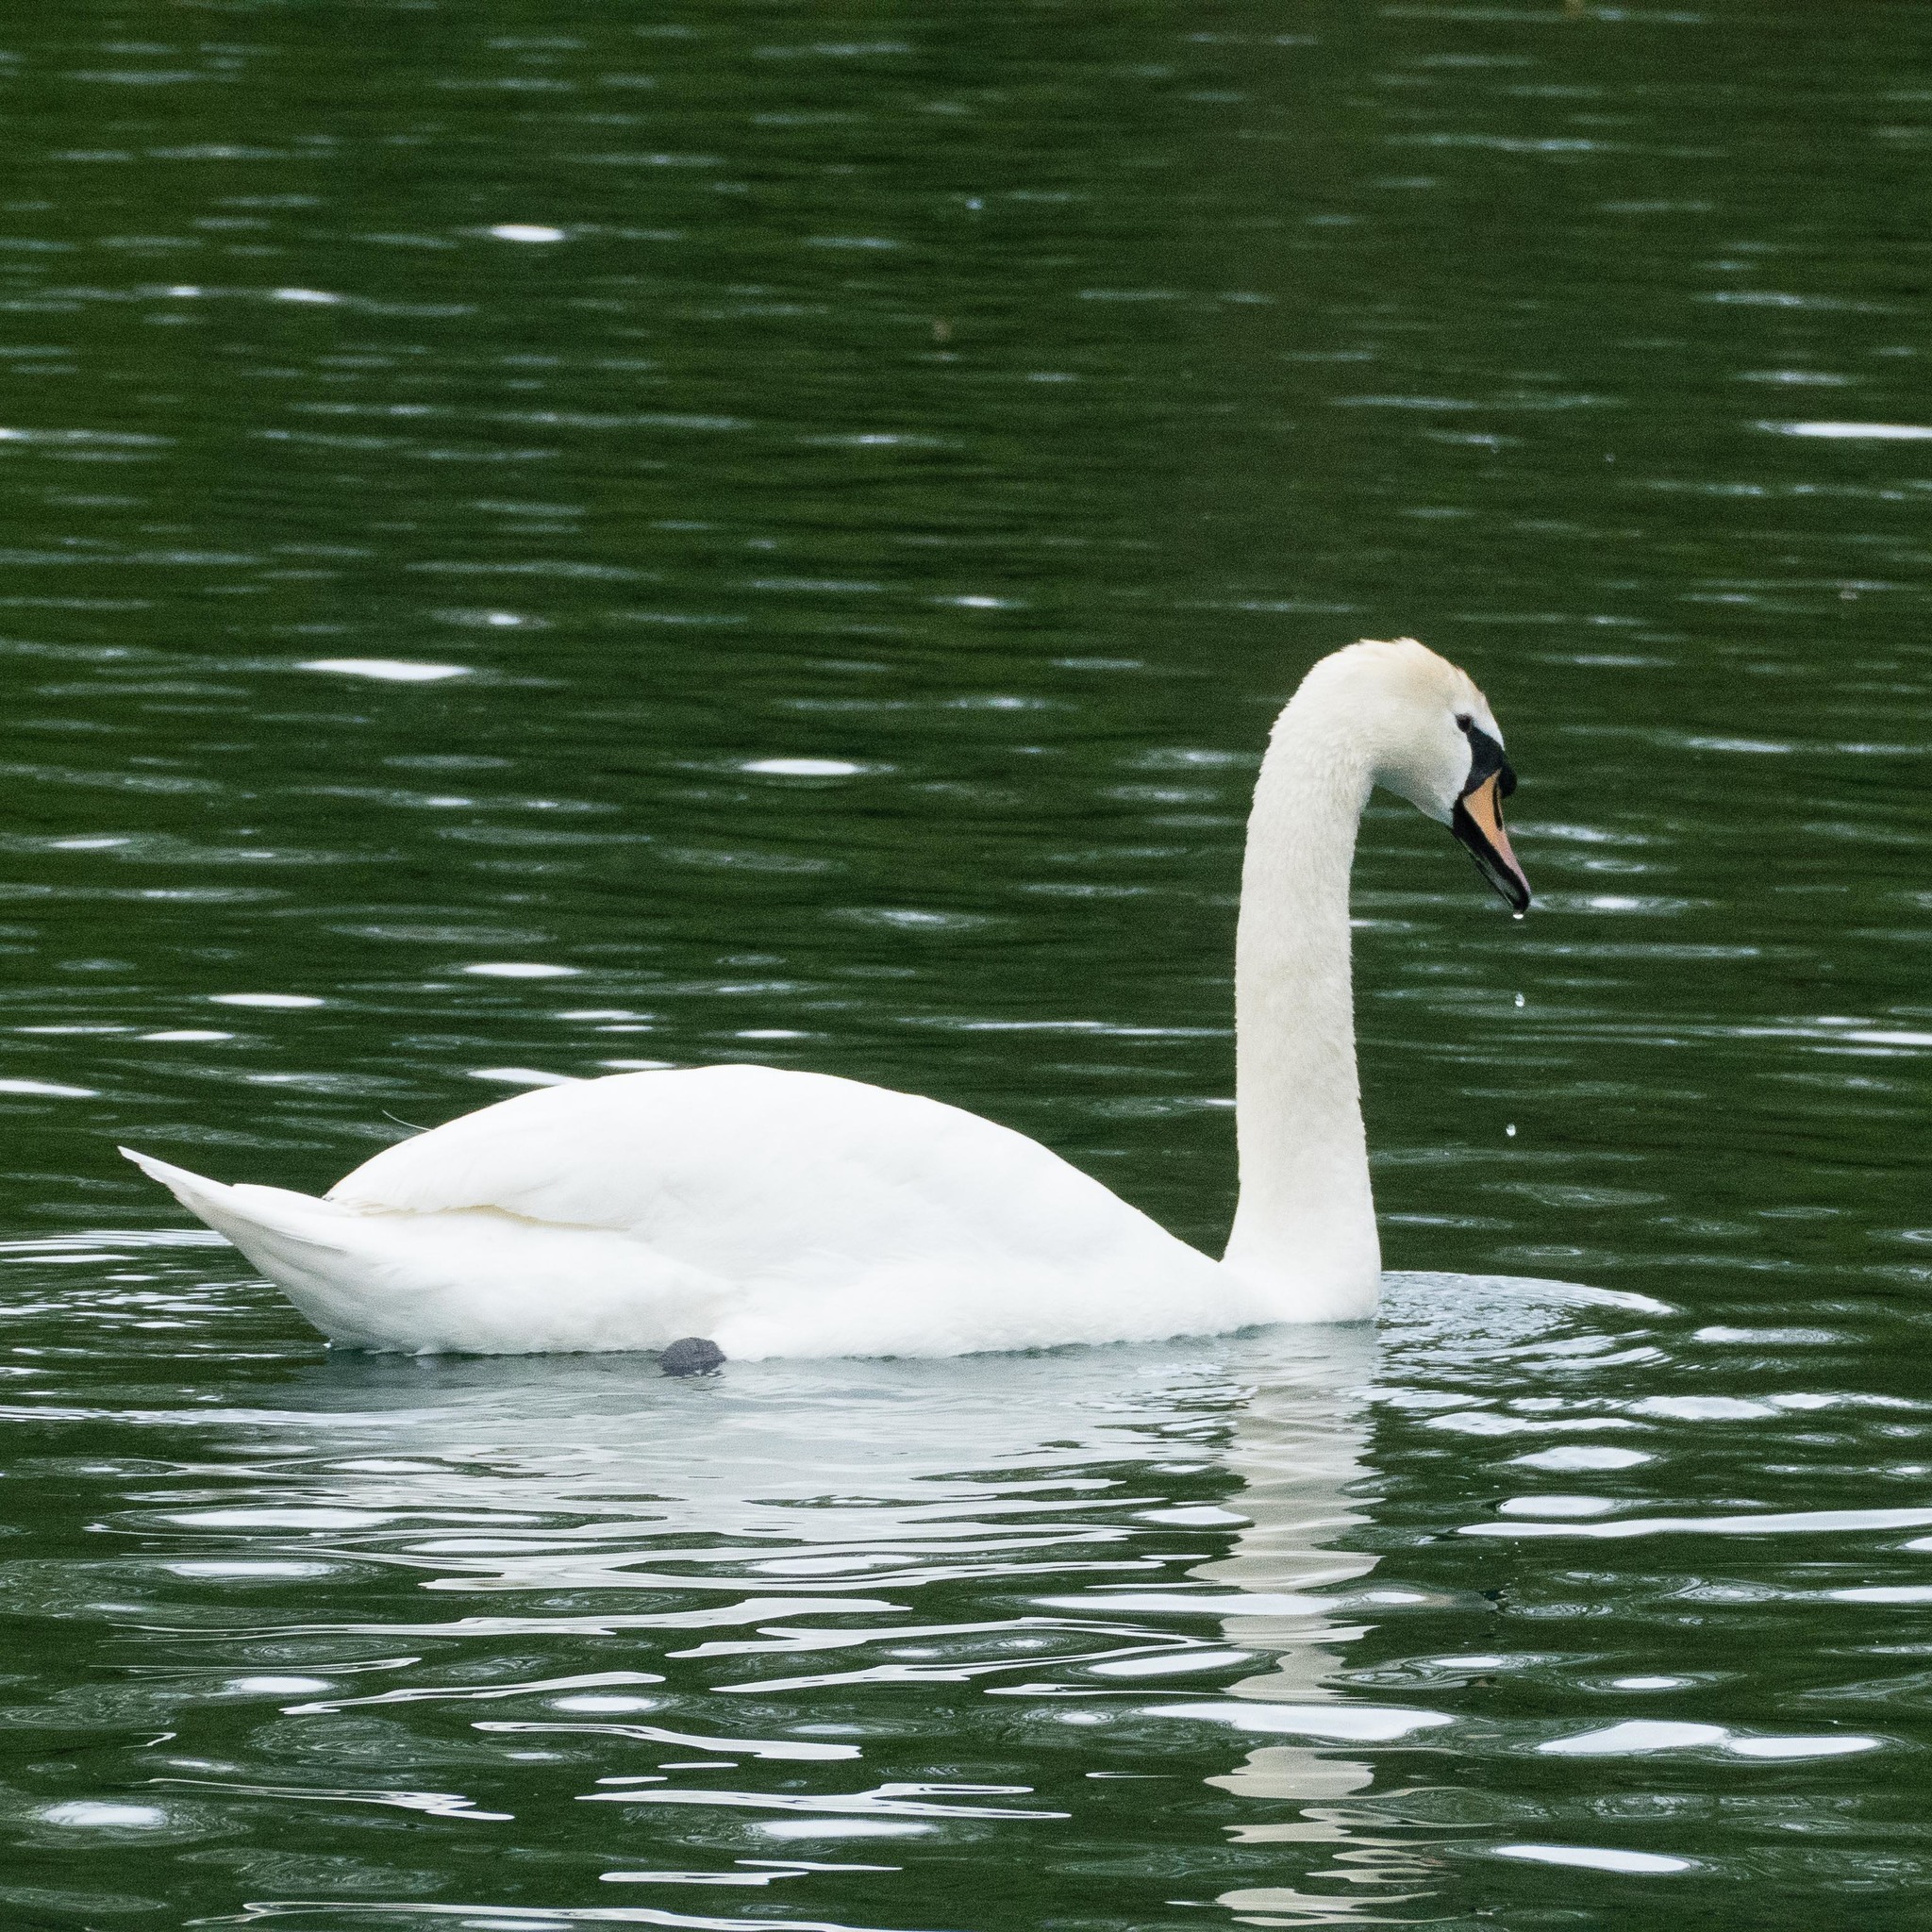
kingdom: Animalia
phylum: Chordata
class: Aves
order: Anseriformes
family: Anatidae
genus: Cygnus
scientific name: Cygnus olor
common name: Mute swan
